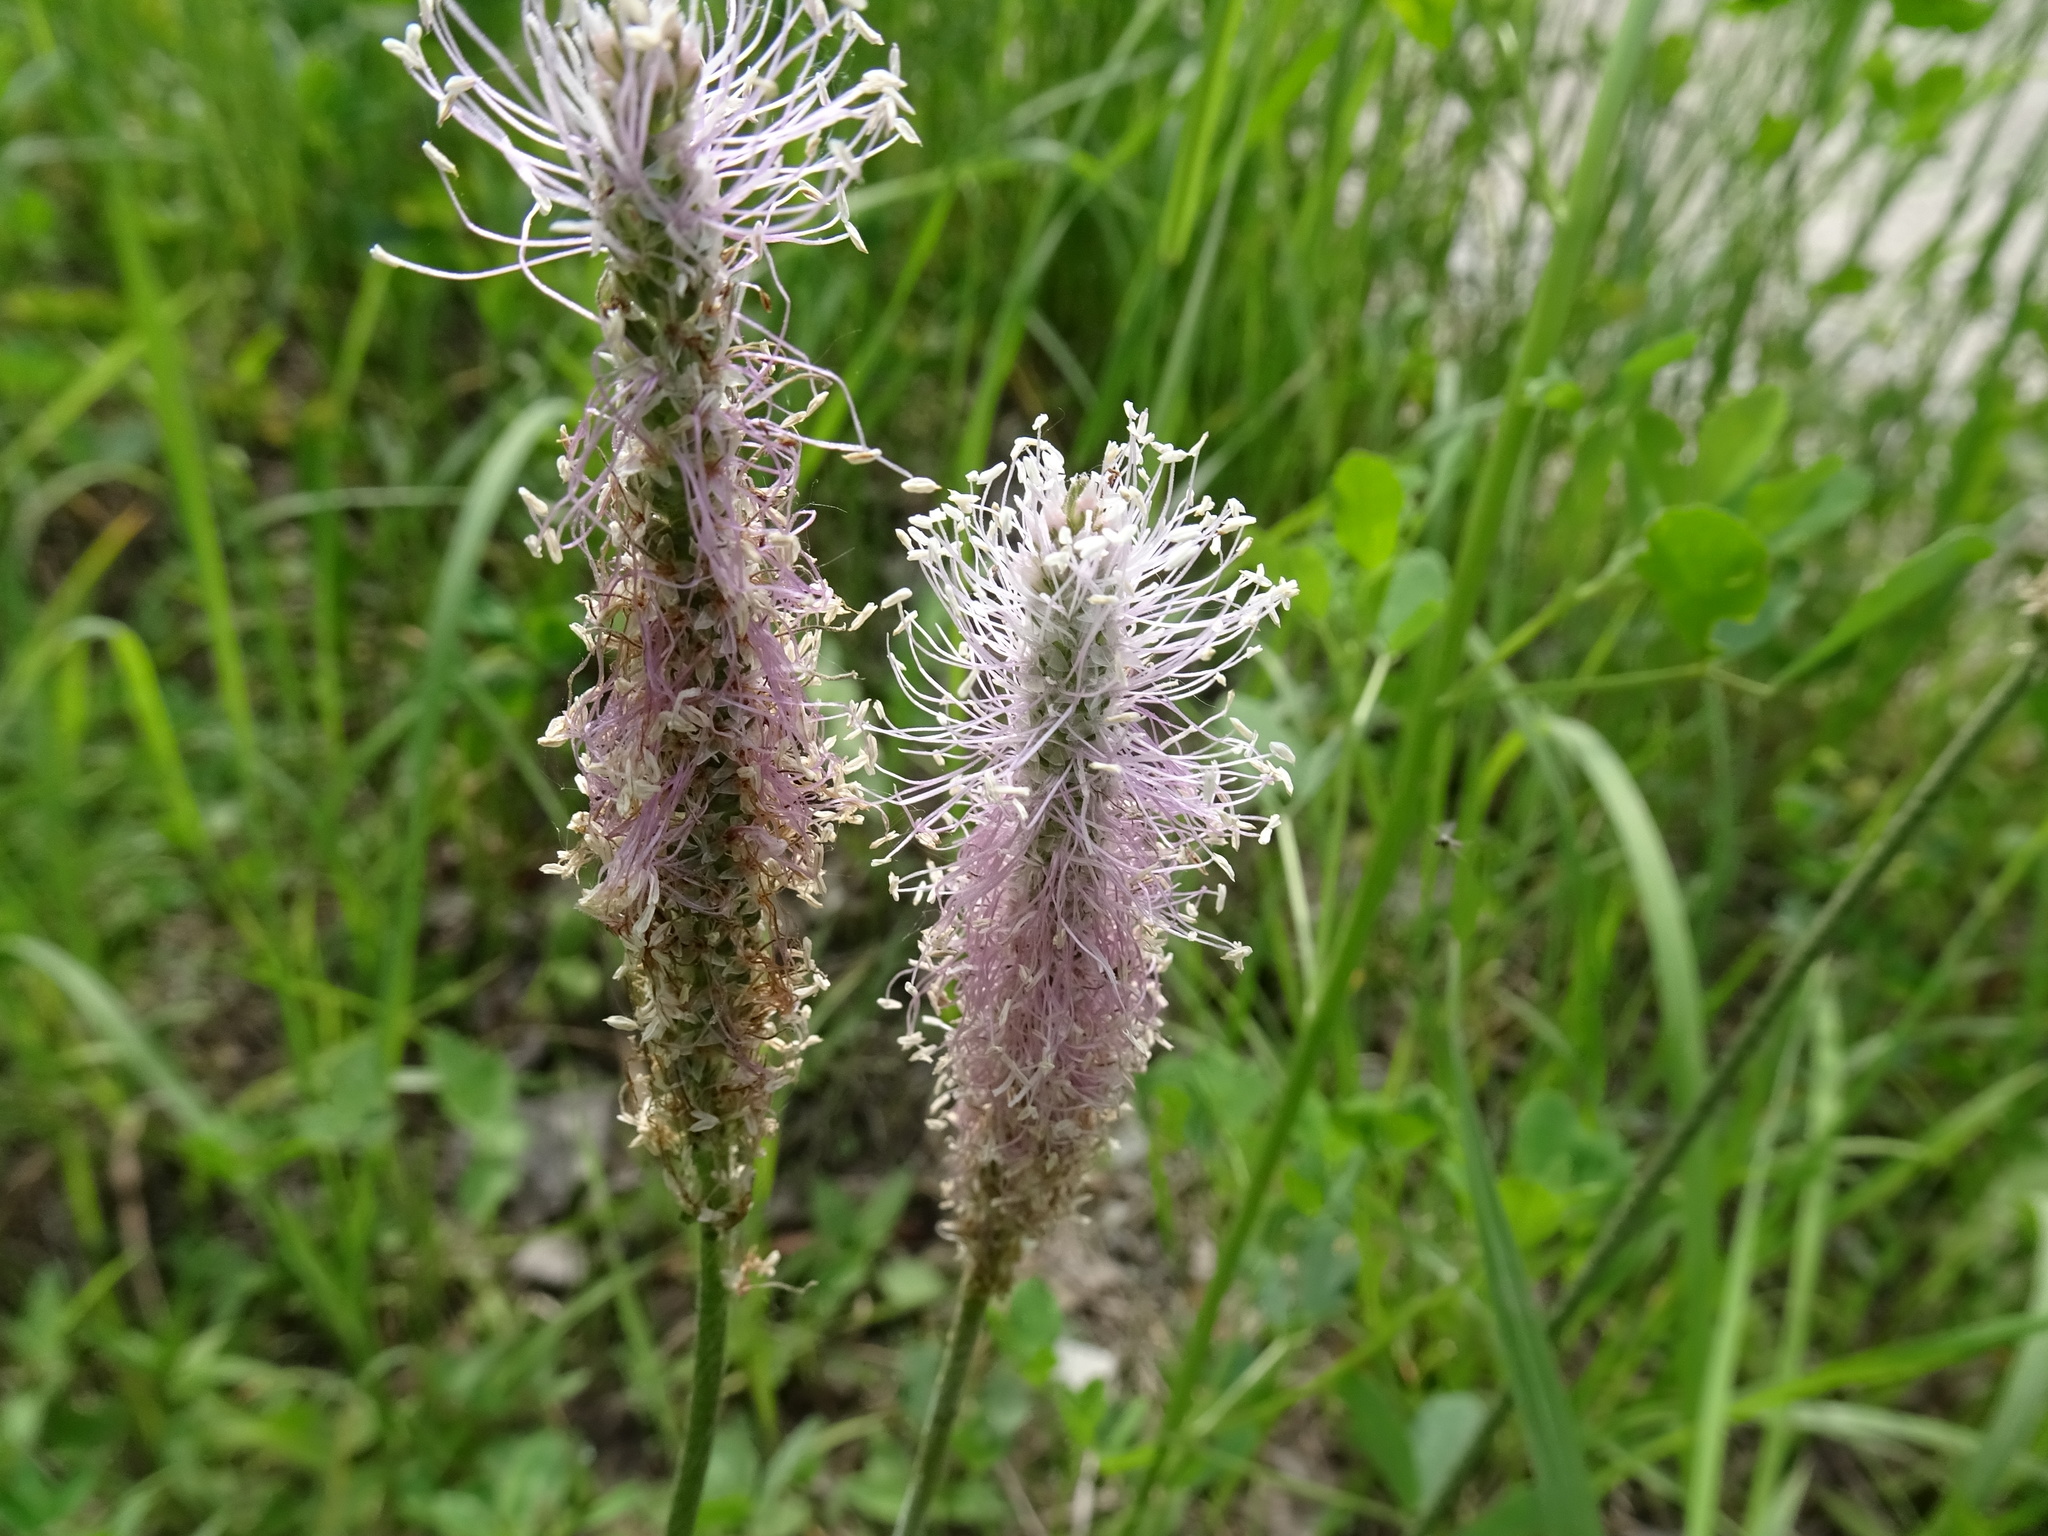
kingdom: Plantae
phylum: Tracheophyta
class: Magnoliopsida
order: Lamiales
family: Plantaginaceae
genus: Plantago
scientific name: Plantago media
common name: Hoary plantain
